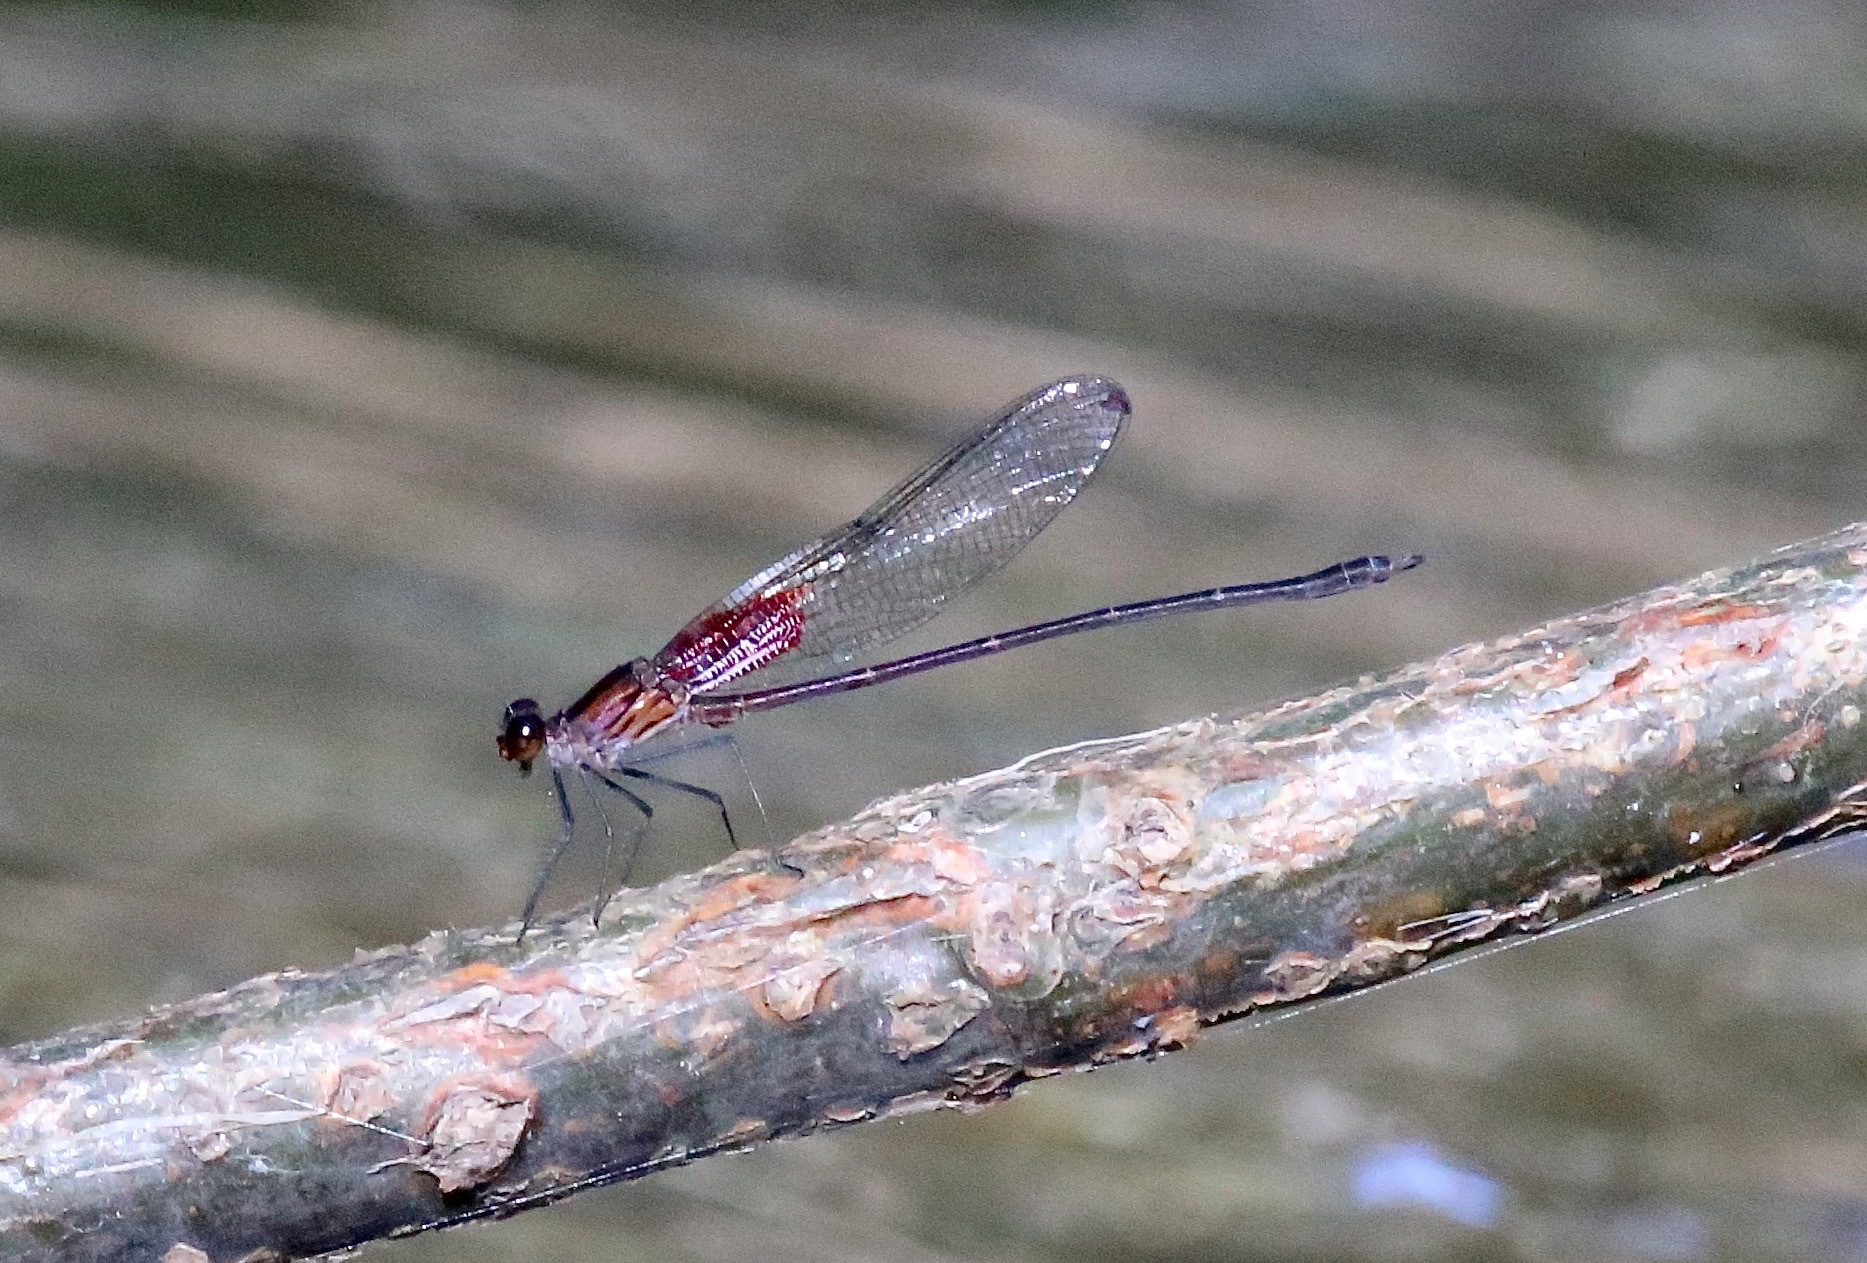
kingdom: Animalia
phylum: Arthropoda
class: Insecta
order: Odonata
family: Calopterygidae
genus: Hetaerina
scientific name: Hetaerina occisa
